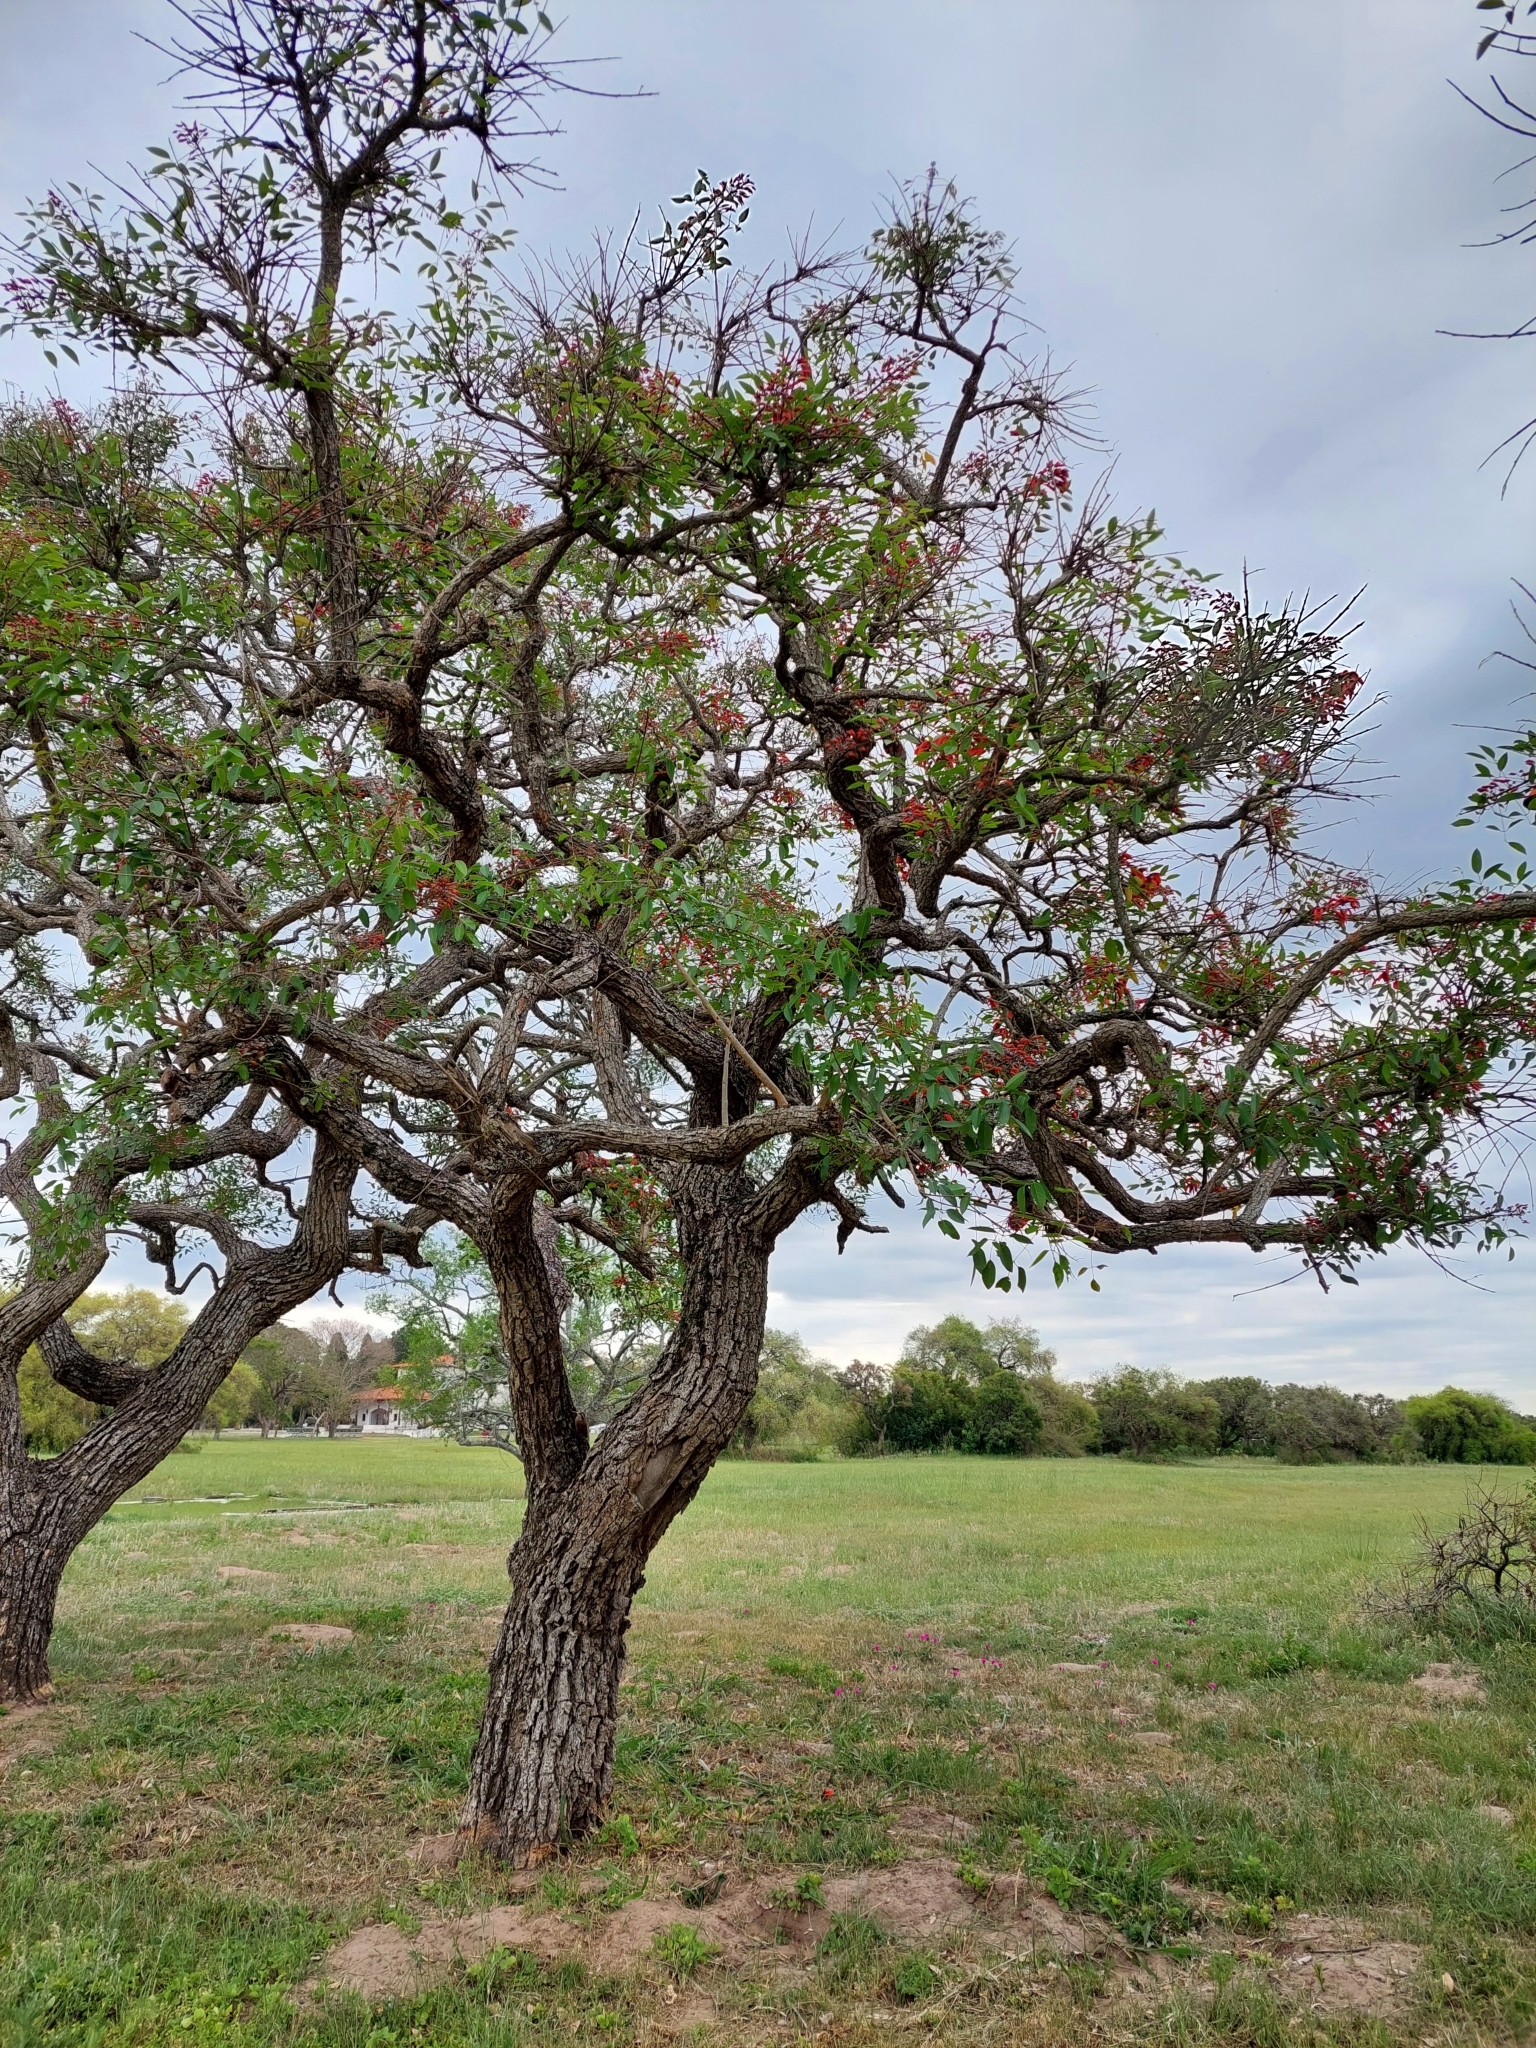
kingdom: Plantae
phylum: Tracheophyta
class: Magnoliopsida
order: Fabales
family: Fabaceae
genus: Erythrina
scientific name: Erythrina crista-galli
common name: Cockspur coral tree
